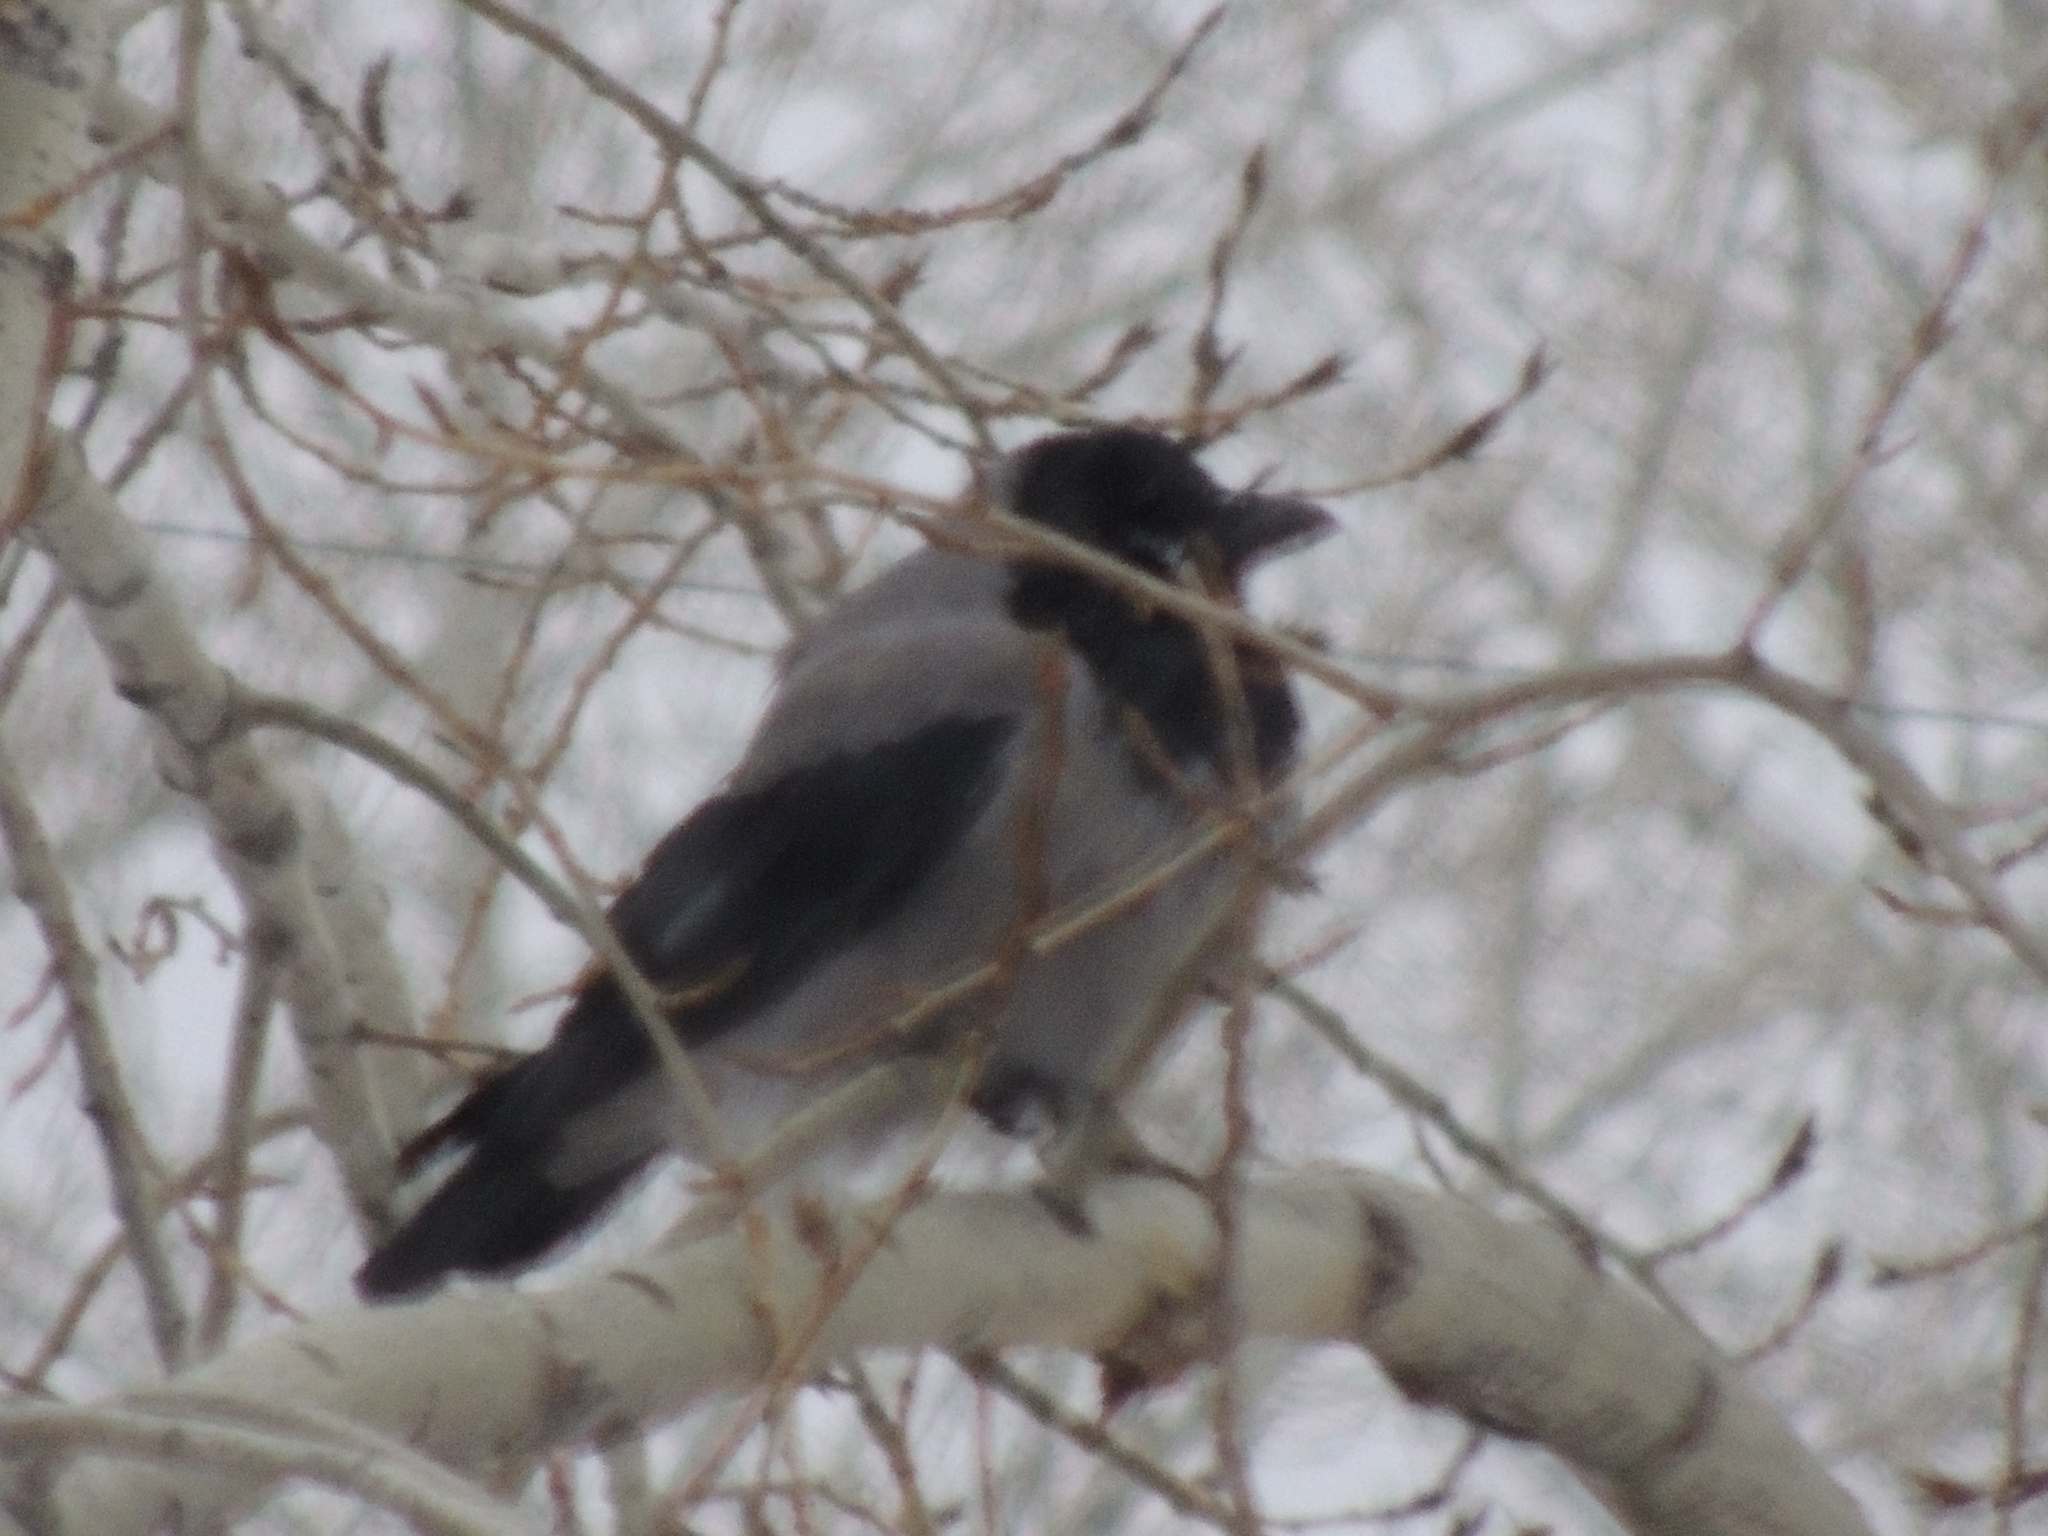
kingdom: Animalia
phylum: Chordata
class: Aves
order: Passeriformes
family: Corvidae
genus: Corvus
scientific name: Corvus cornix
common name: Hooded crow
